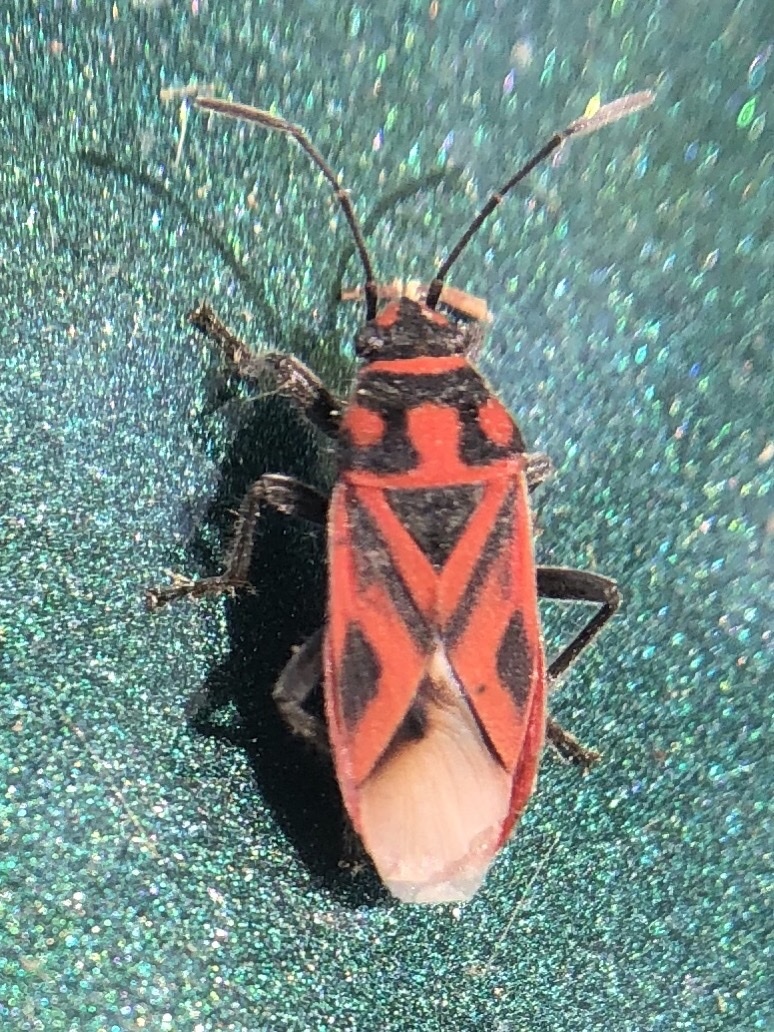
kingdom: Animalia
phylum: Arthropoda
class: Insecta
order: Hemiptera
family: Lygaeidae
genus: Graptostethus
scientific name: Graptostethus servus
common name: Lygaeid bug
